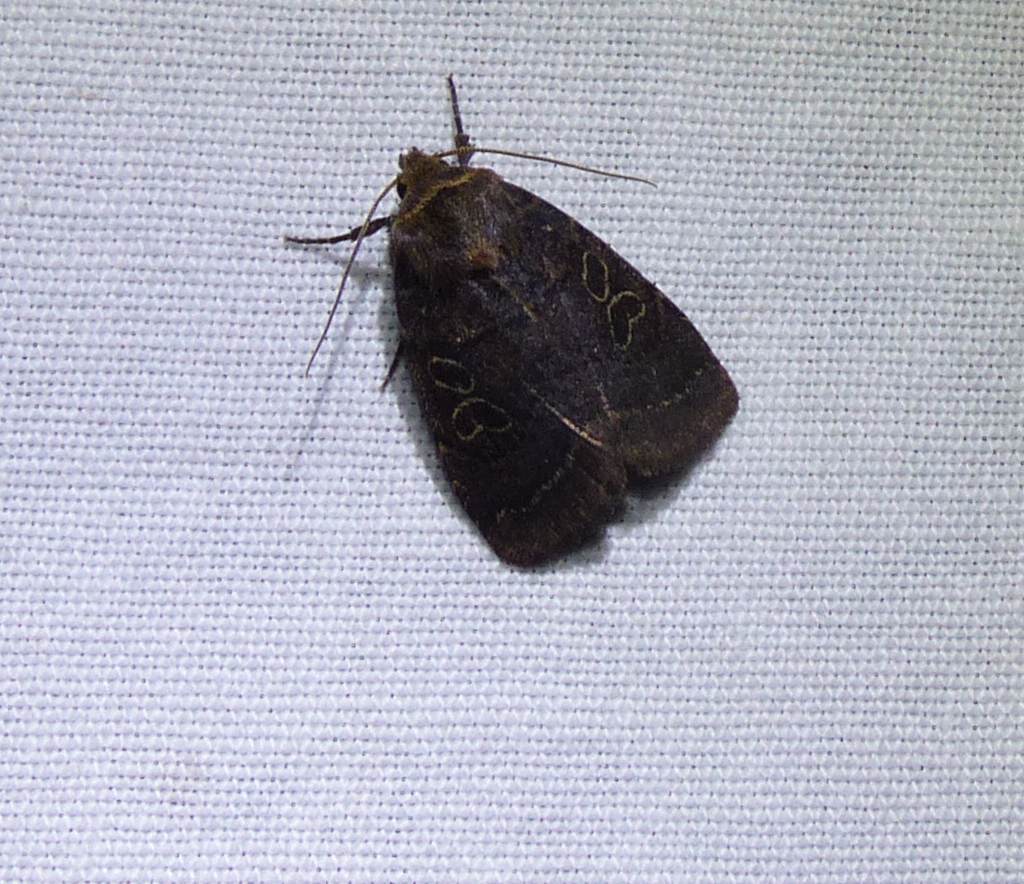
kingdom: Animalia
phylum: Arthropoda
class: Insecta
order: Lepidoptera
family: Noctuidae
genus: Orthodes
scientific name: Orthodes cynica
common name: Cynical quaker
